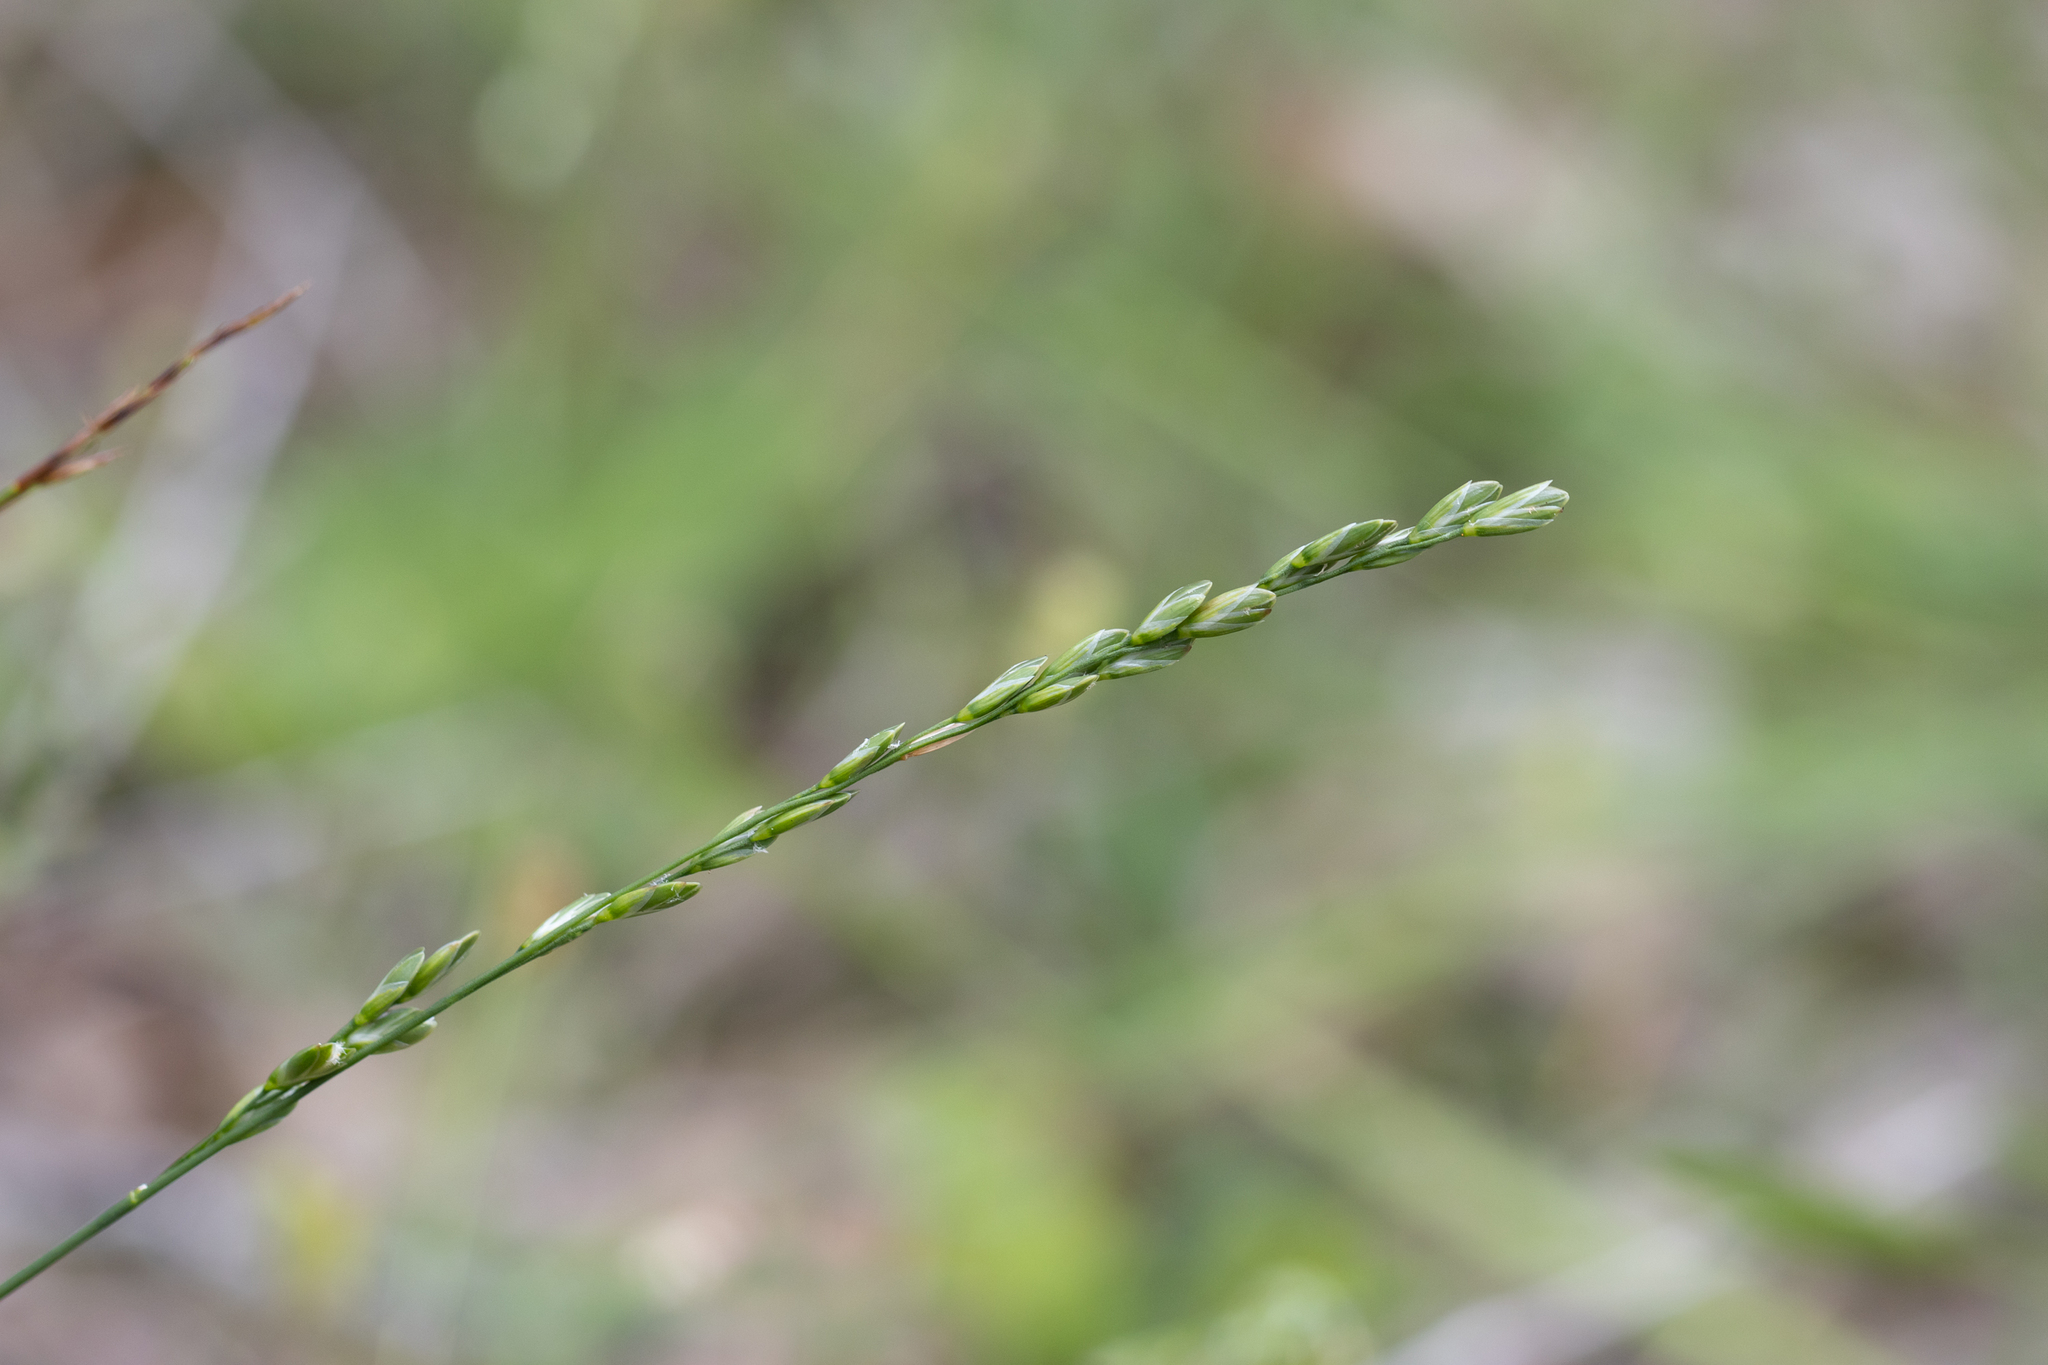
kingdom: Plantae
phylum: Tracheophyta
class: Liliopsida
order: Poales
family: Poaceae
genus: Tetrarrhena
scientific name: Tetrarrhena laevis
